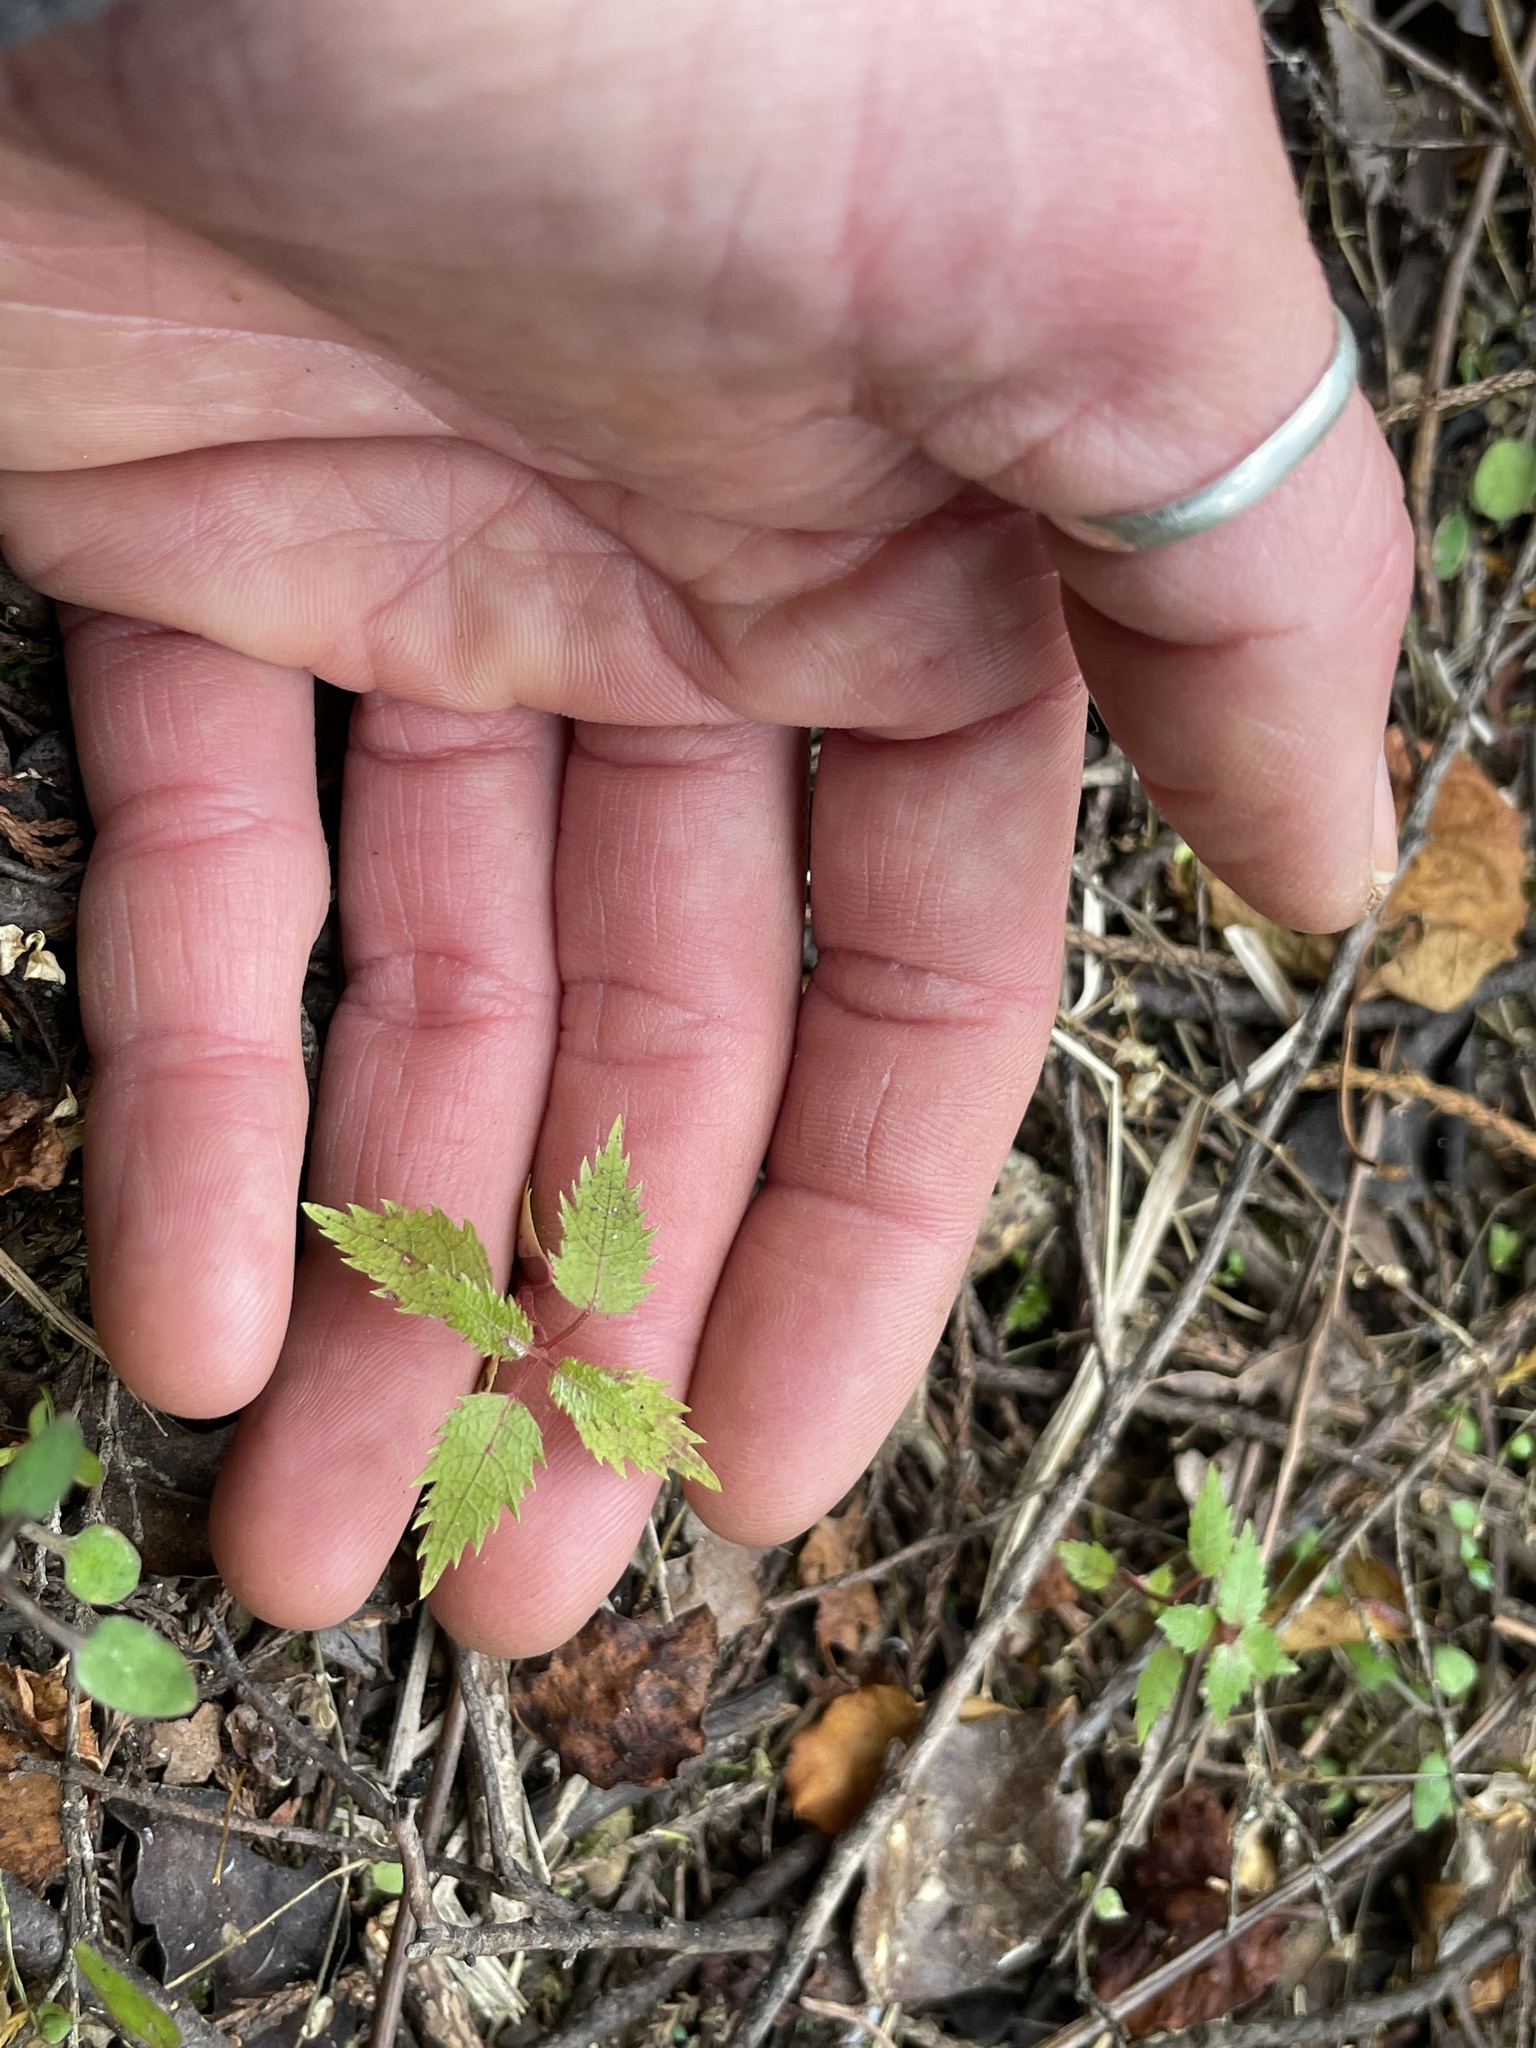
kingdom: Plantae
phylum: Tracheophyta
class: Magnoliopsida
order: Oxalidales
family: Elaeocarpaceae
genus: Aristotelia
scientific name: Aristotelia serrata
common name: New zealand wineberry
